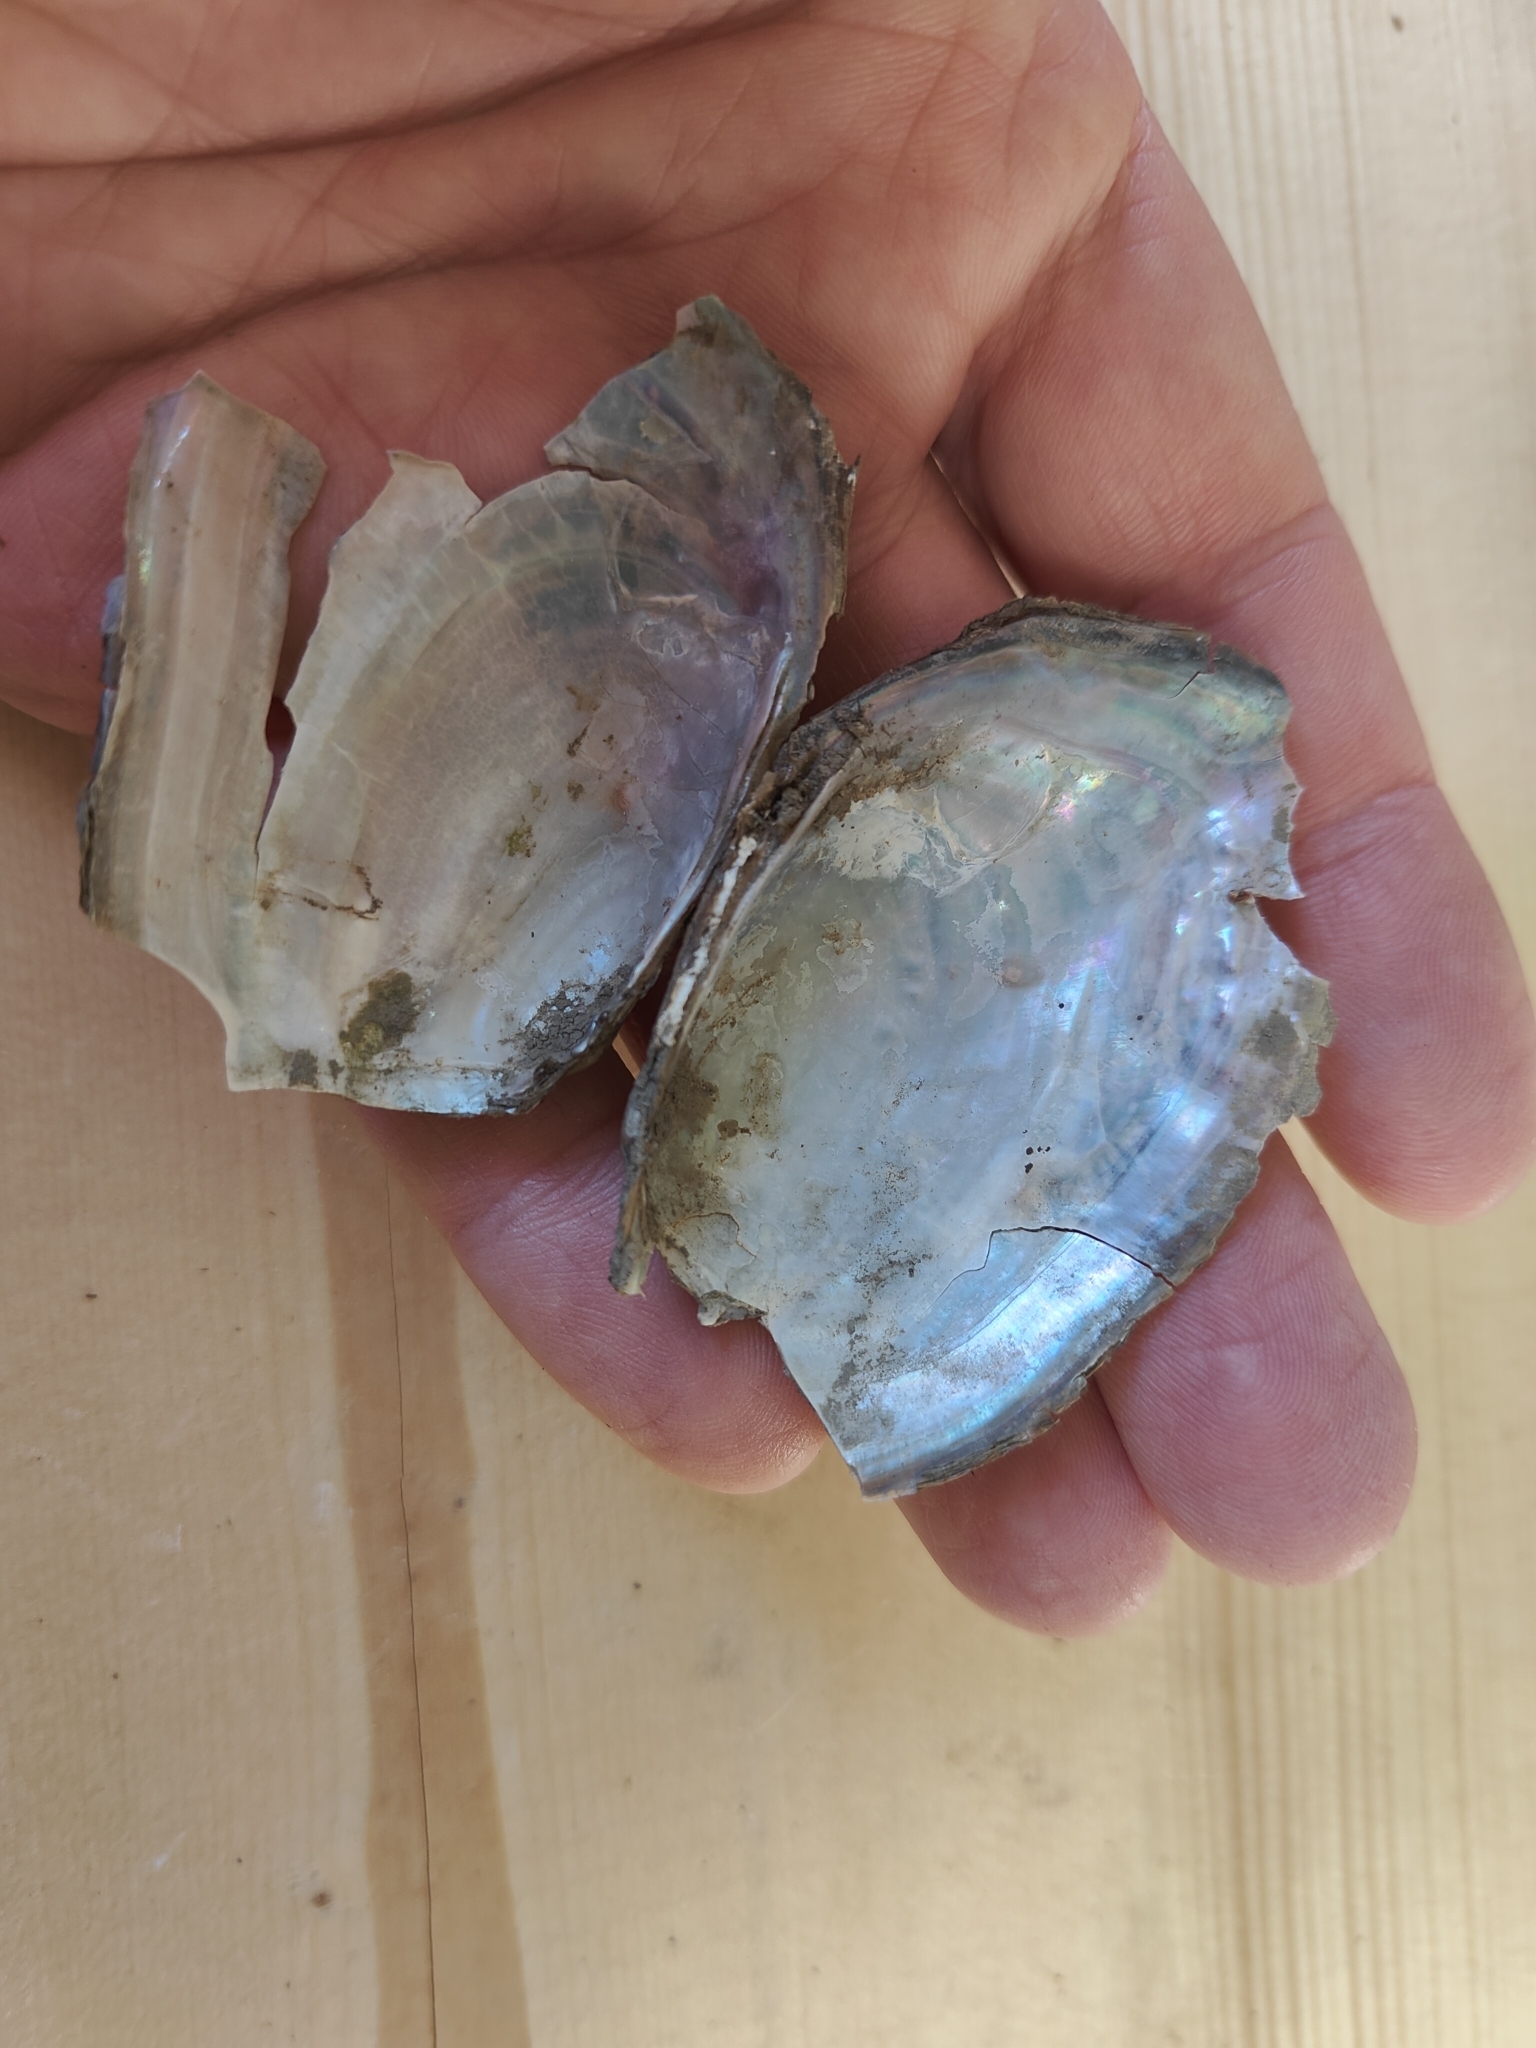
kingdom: Animalia
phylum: Mollusca
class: Bivalvia
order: Unionida
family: Unionidae
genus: Potamilus
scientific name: Potamilus fragilis
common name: Fragile papershell
